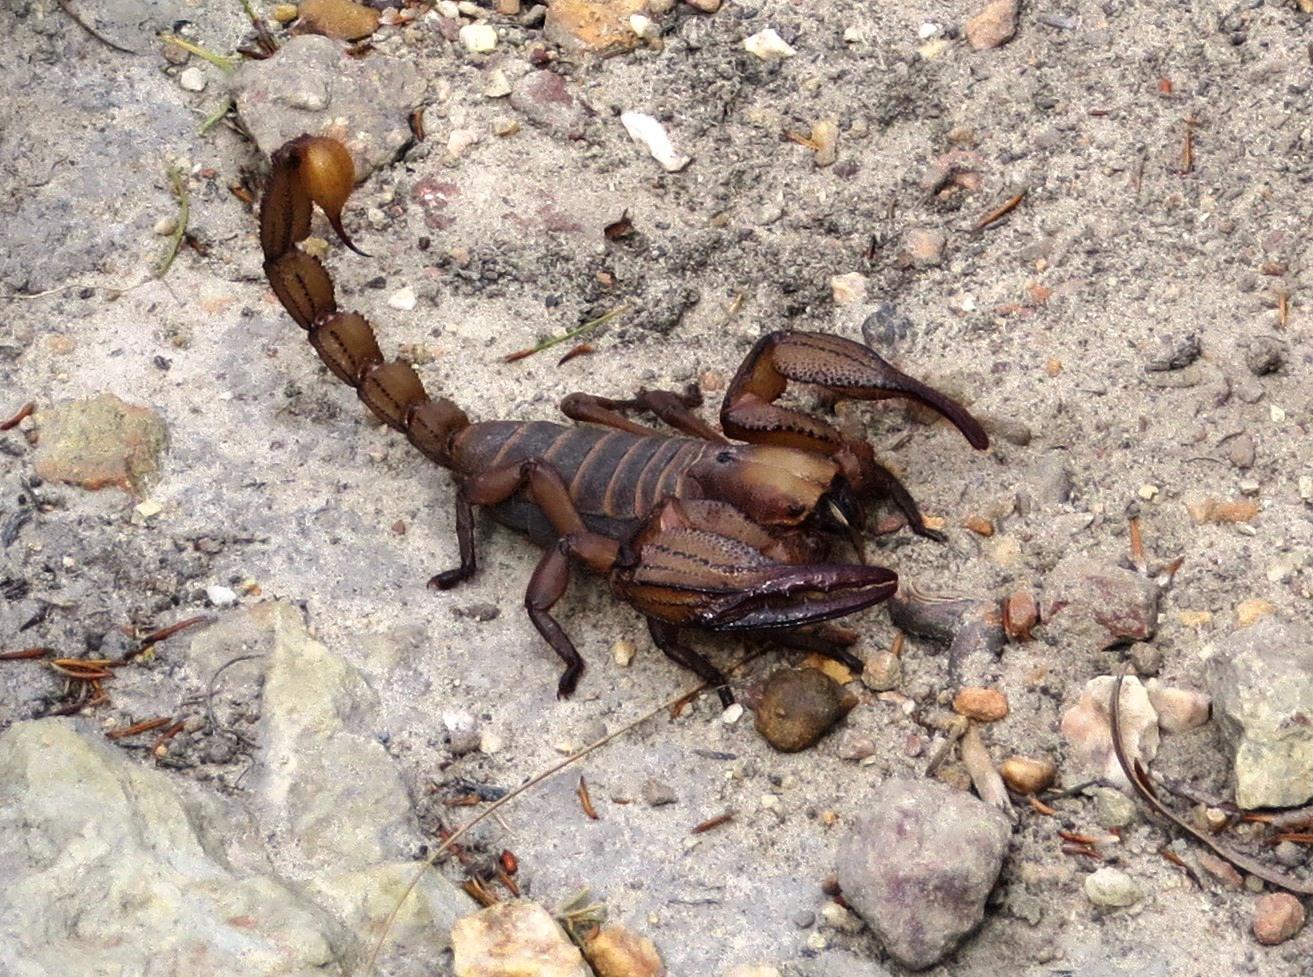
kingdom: Animalia
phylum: Arthropoda
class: Arachnida
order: Scorpiones
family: Scorpionidae
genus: Opistophthalmus
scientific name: Opistophthalmus macer
